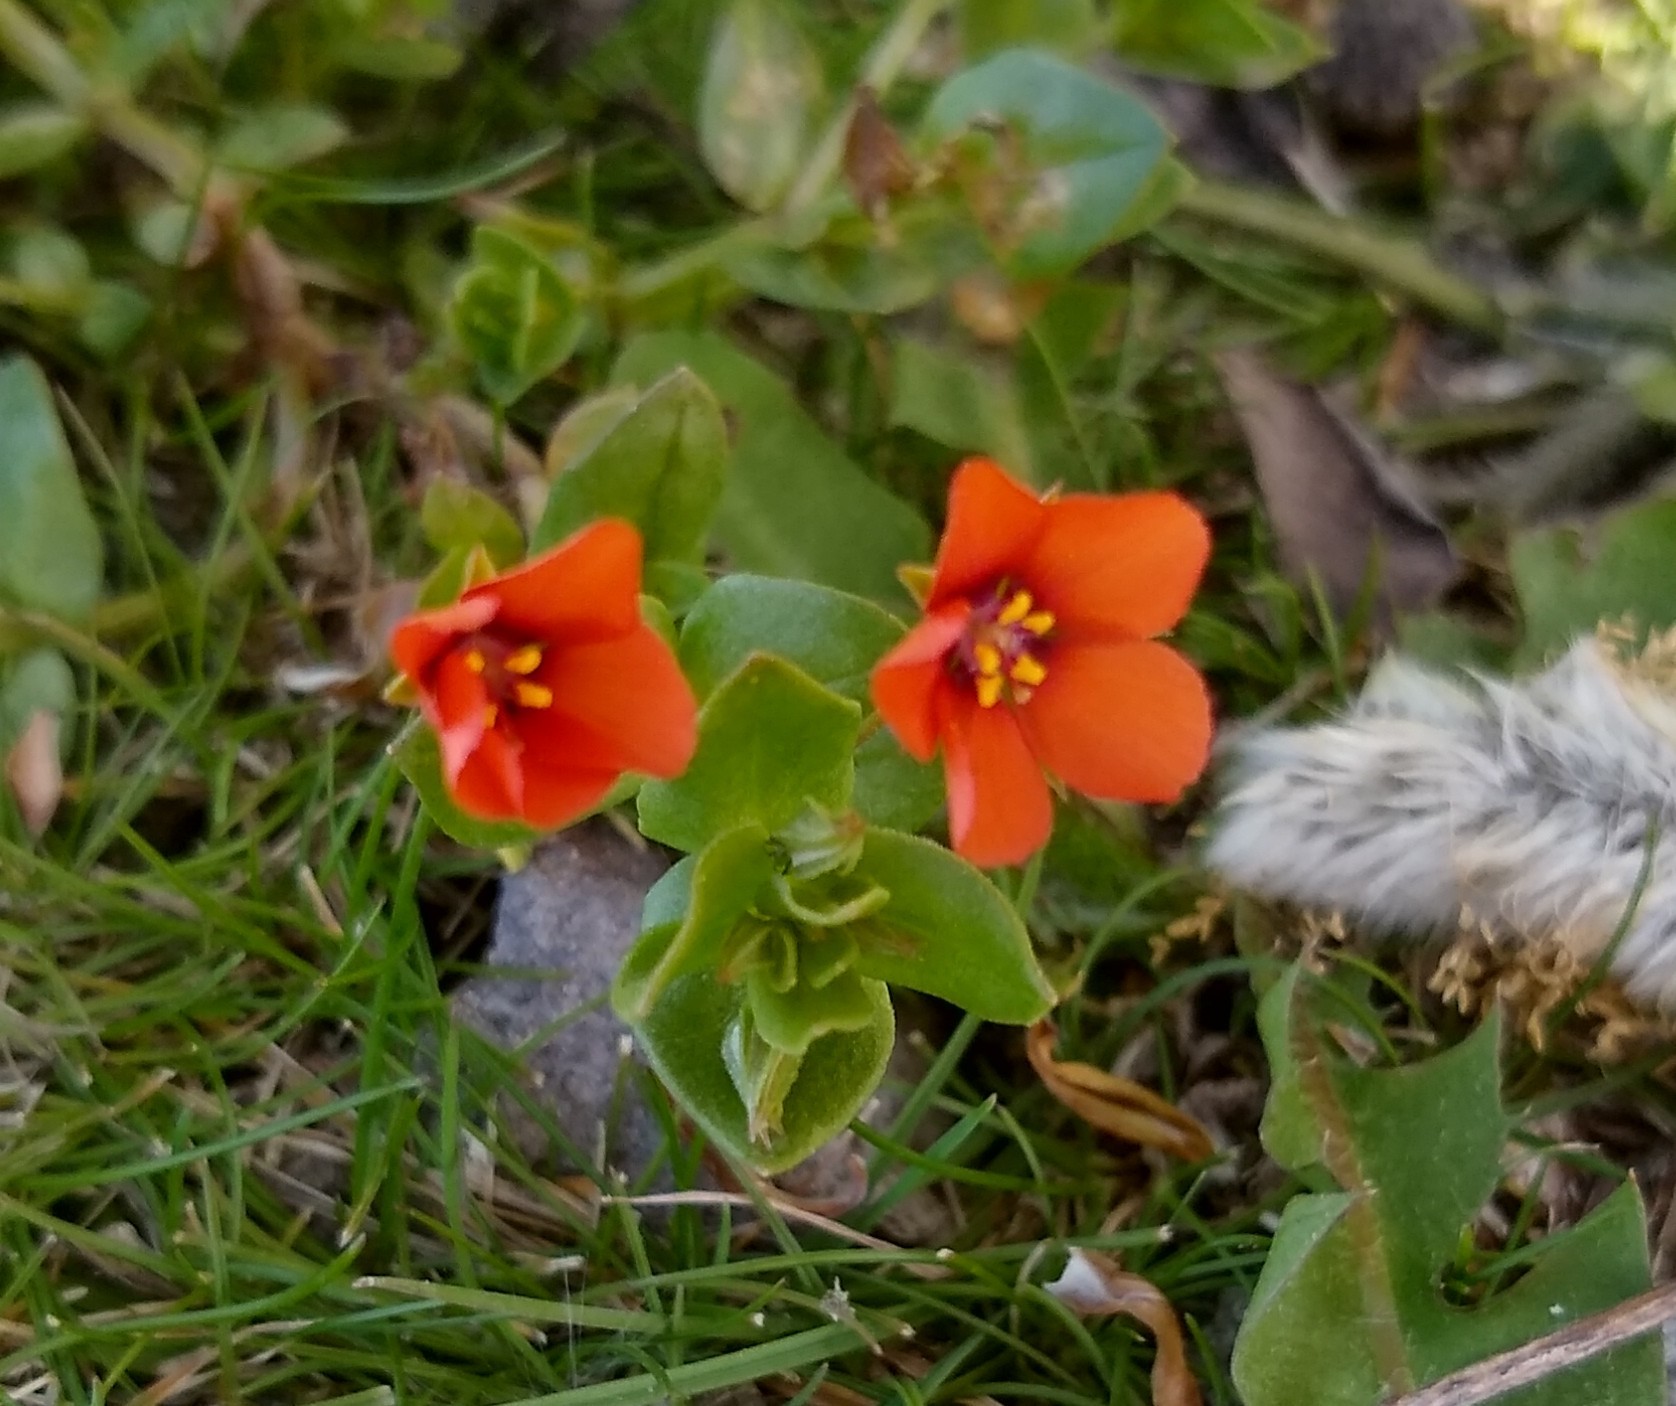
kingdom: Plantae
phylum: Tracheophyta
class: Magnoliopsida
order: Ericales
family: Primulaceae
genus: Lysimachia
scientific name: Lysimachia arvensis
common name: Scarlet pimpernel
